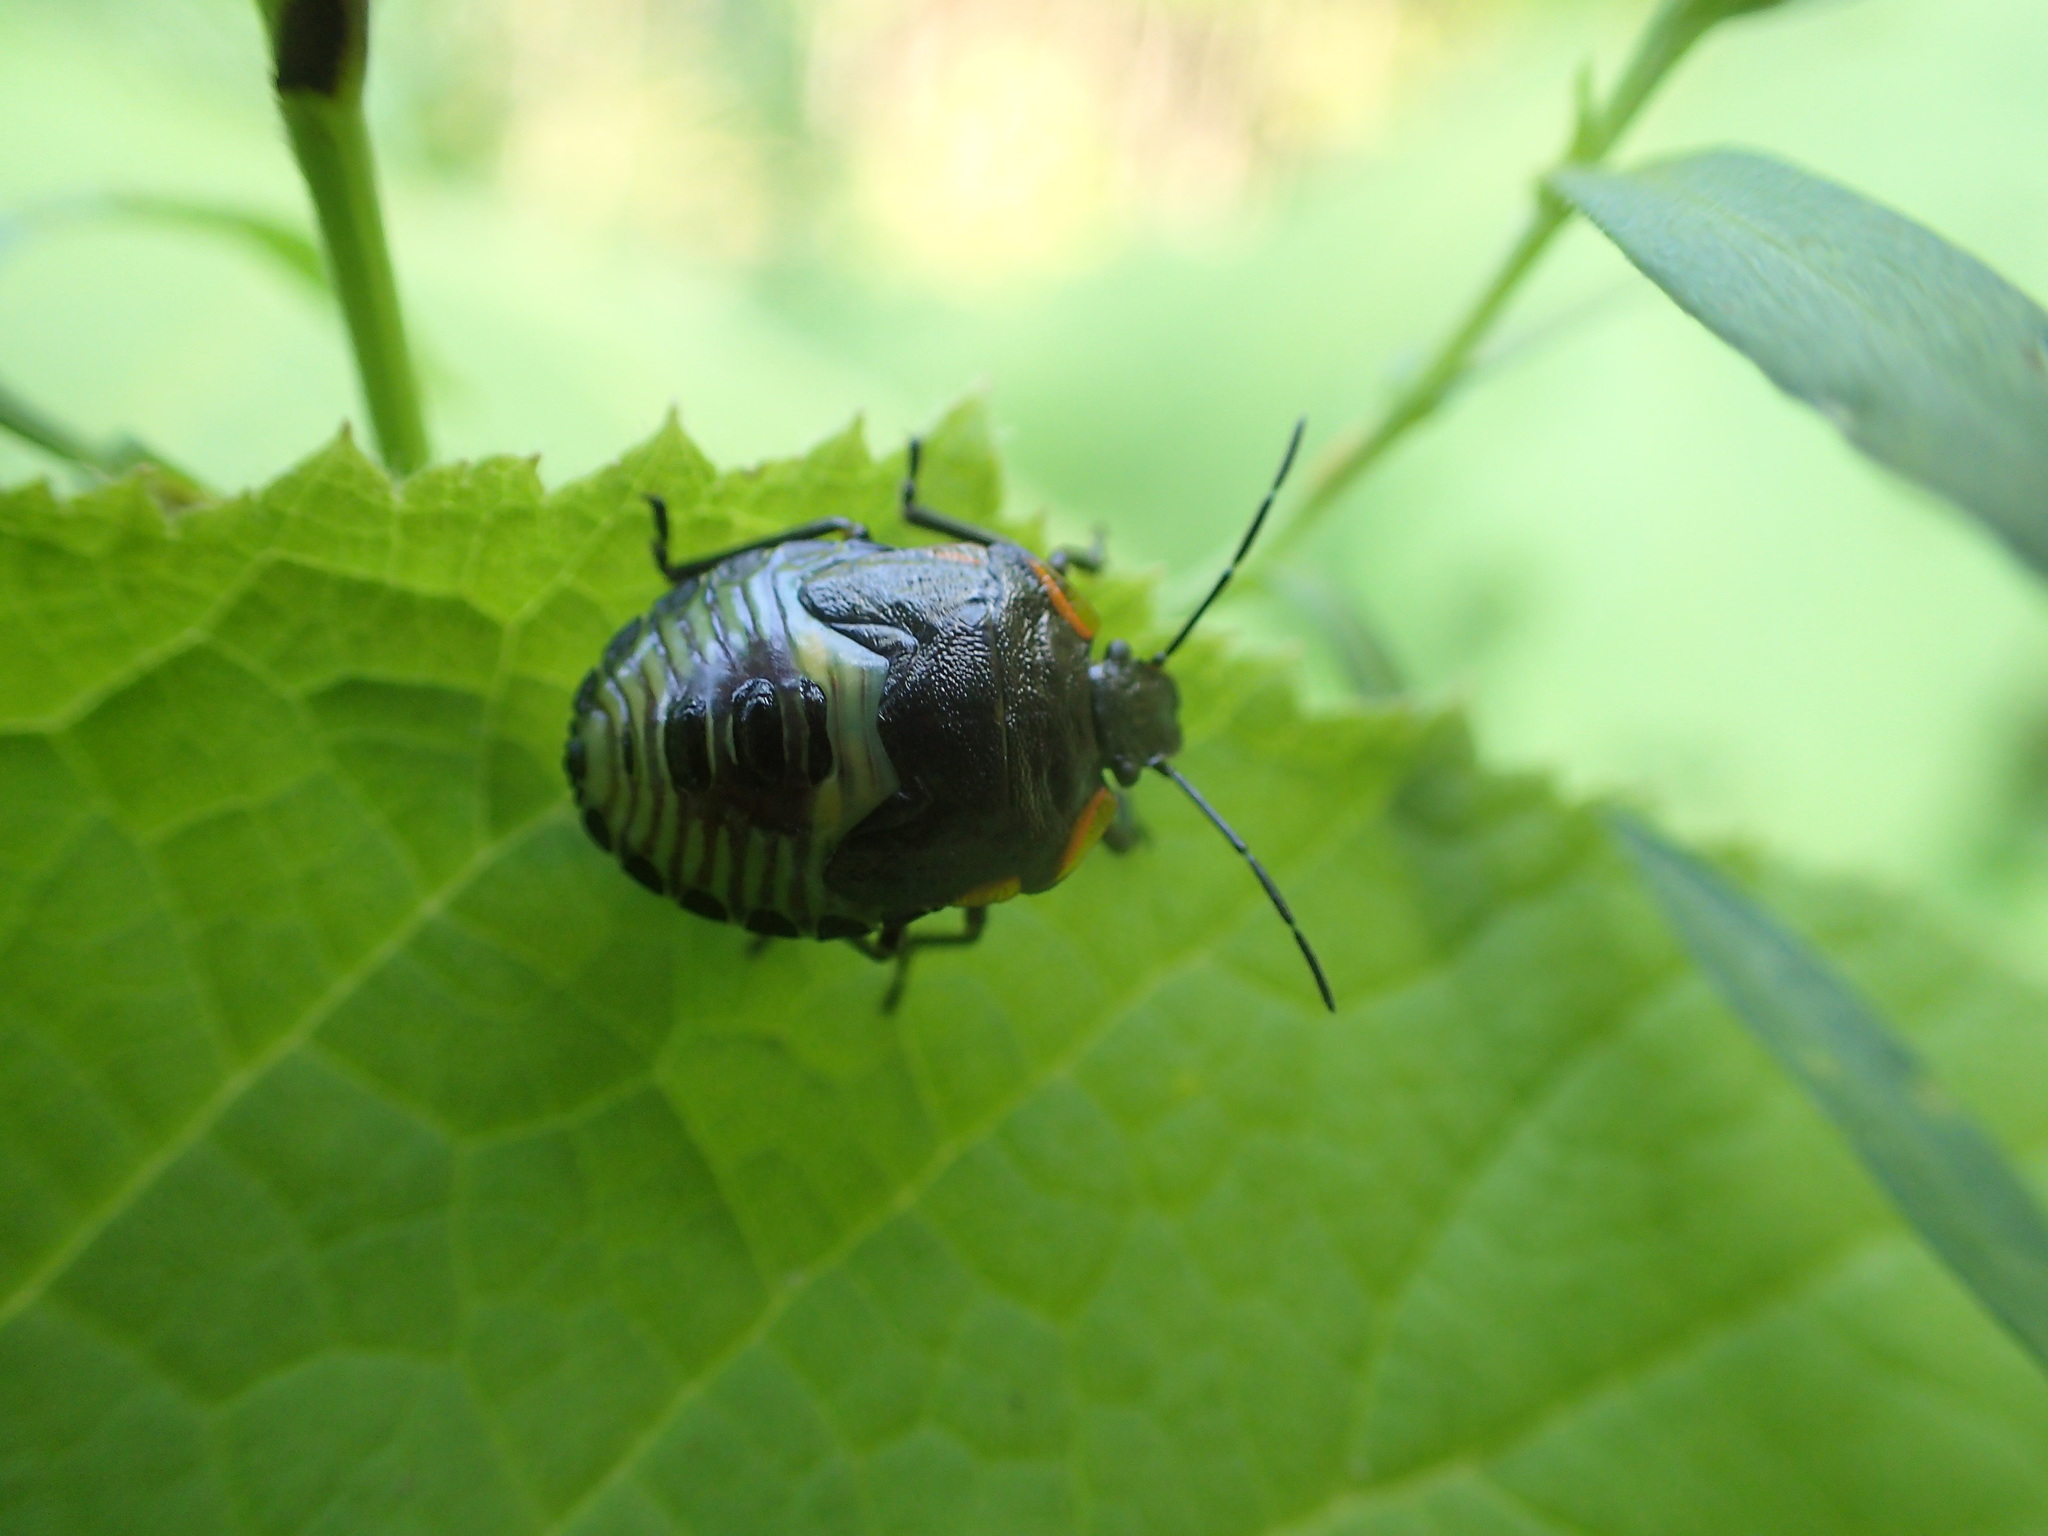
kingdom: Animalia
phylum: Arthropoda
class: Insecta
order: Hemiptera
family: Pentatomidae
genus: Chinavia
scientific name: Chinavia hilaris
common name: Green stink bug
